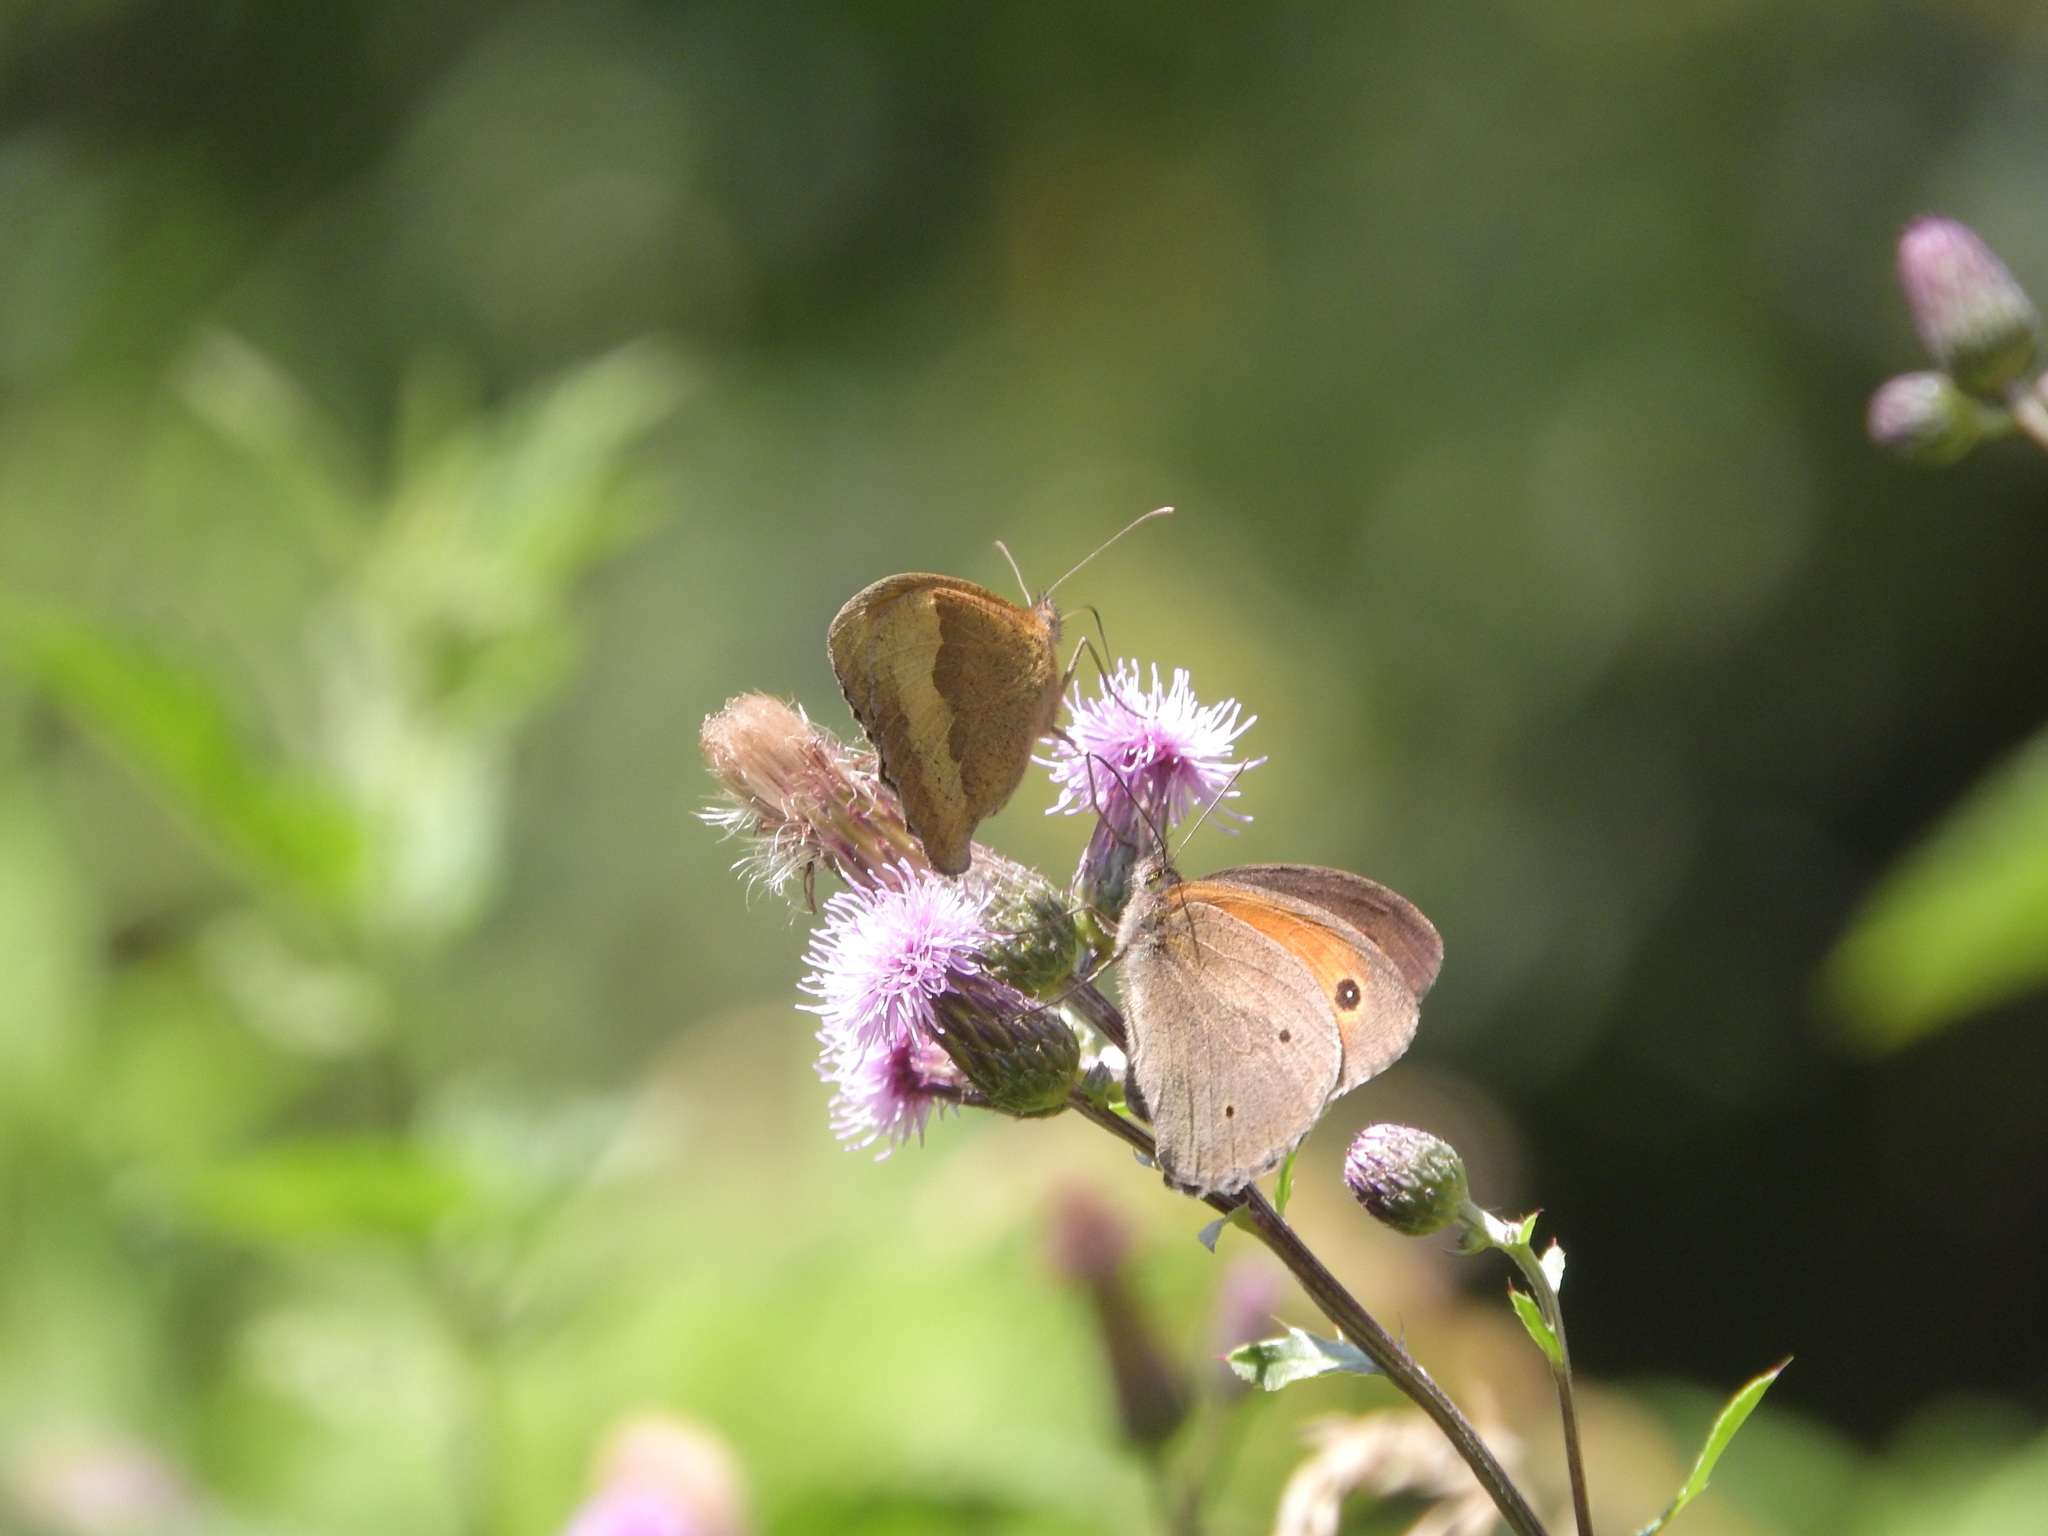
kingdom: Animalia
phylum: Arthropoda
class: Insecta
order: Lepidoptera
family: Nymphalidae
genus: Maniola
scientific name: Maniola jurtina
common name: Meadow brown
